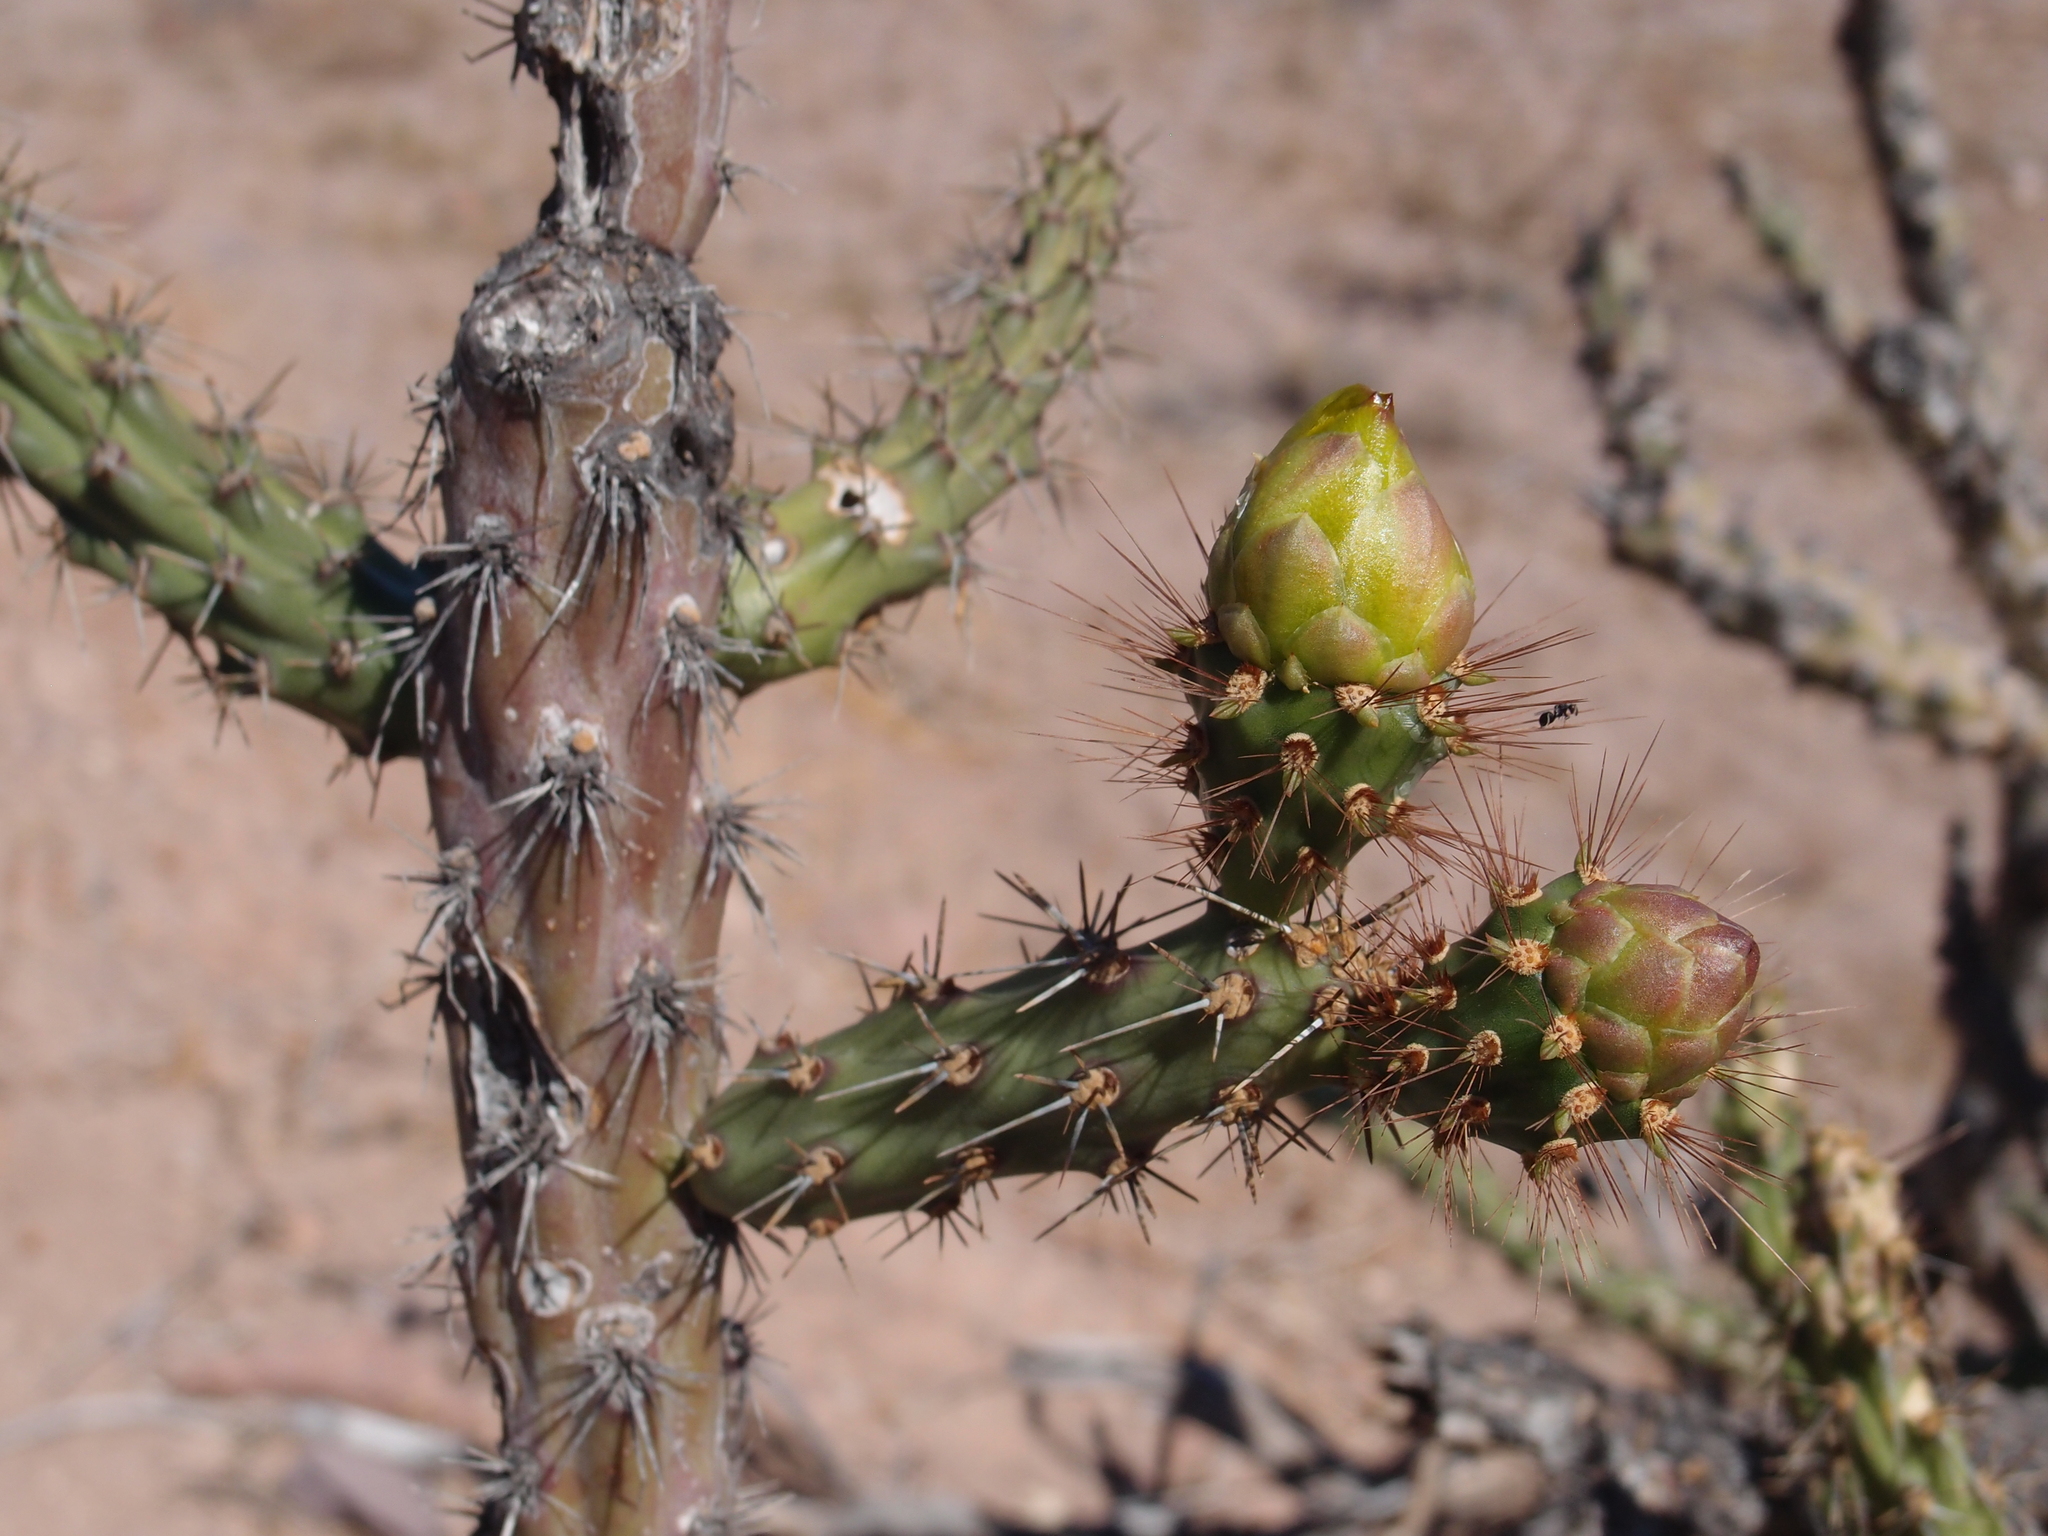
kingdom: Plantae
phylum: Tracheophyta
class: Magnoliopsida
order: Caryophyllales
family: Cactaceae
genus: Cylindropuntia
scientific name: Cylindropuntia thurberi
